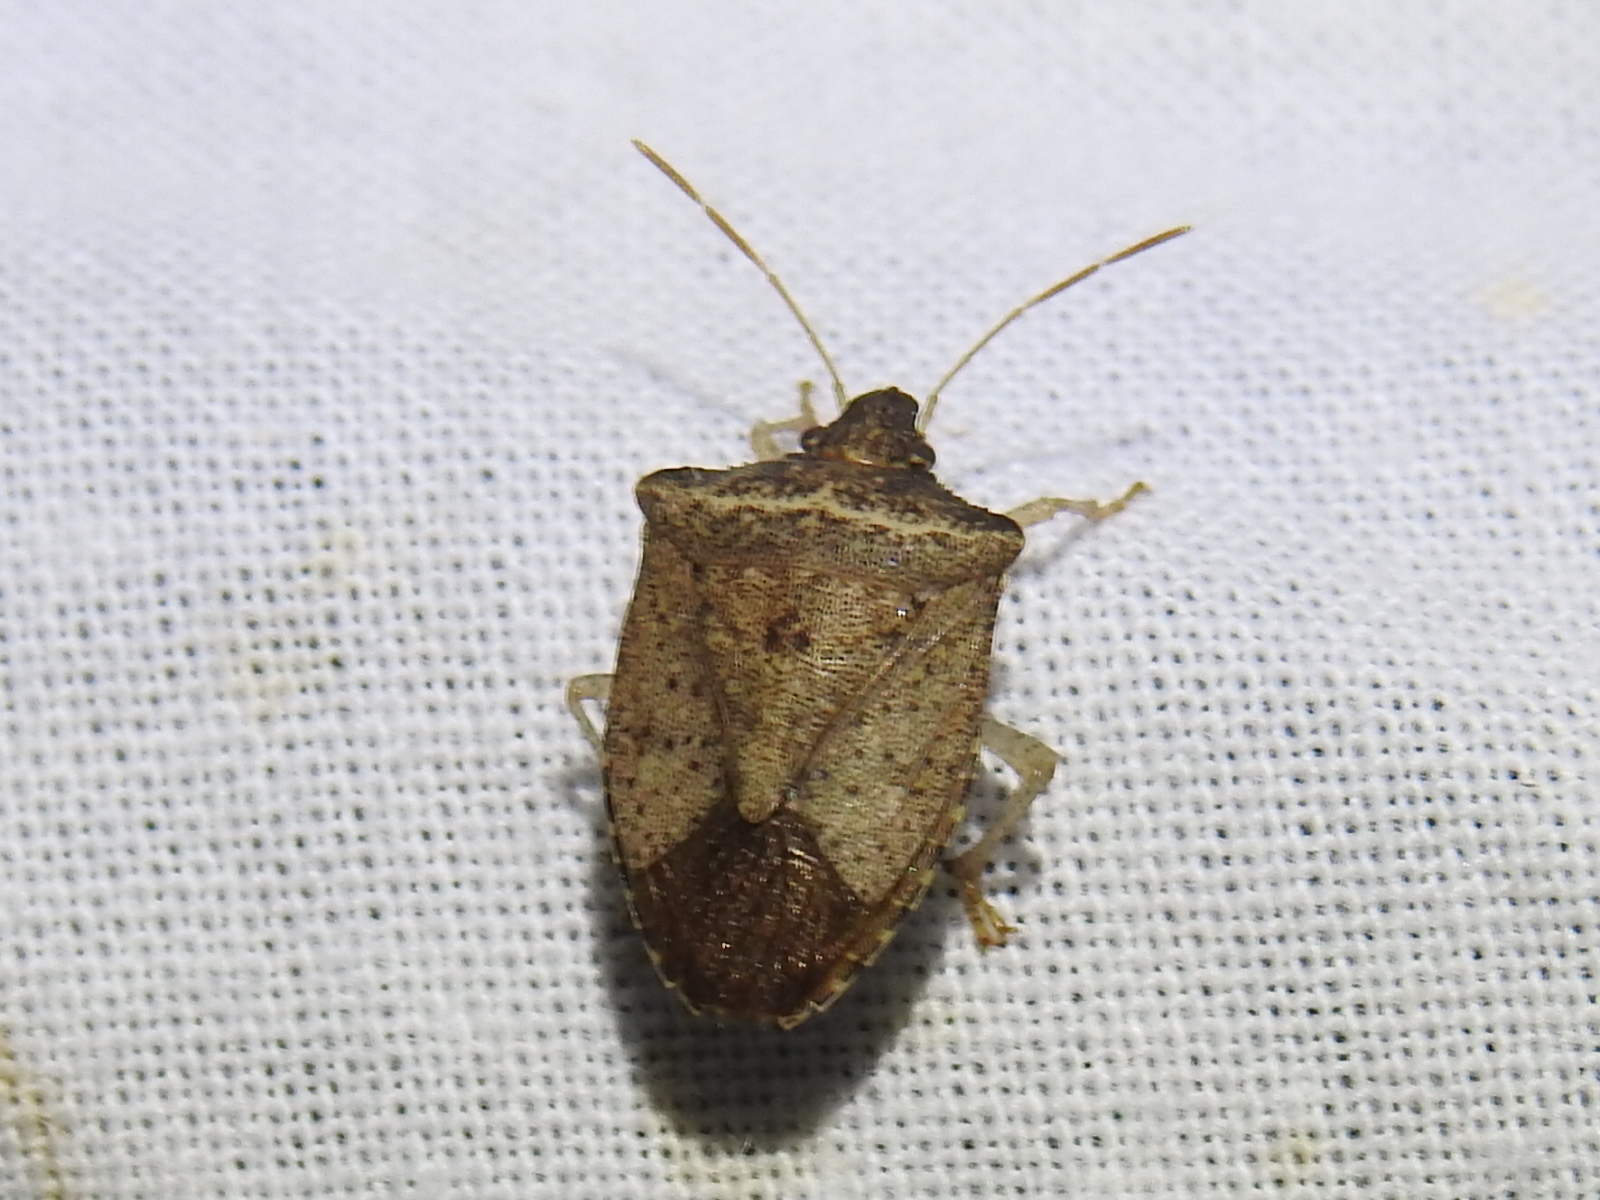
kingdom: Animalia
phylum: Arthropoda
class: Insecta
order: Hemiptera
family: Pentatomidae
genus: Euschistus
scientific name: Euschistus obscurus
